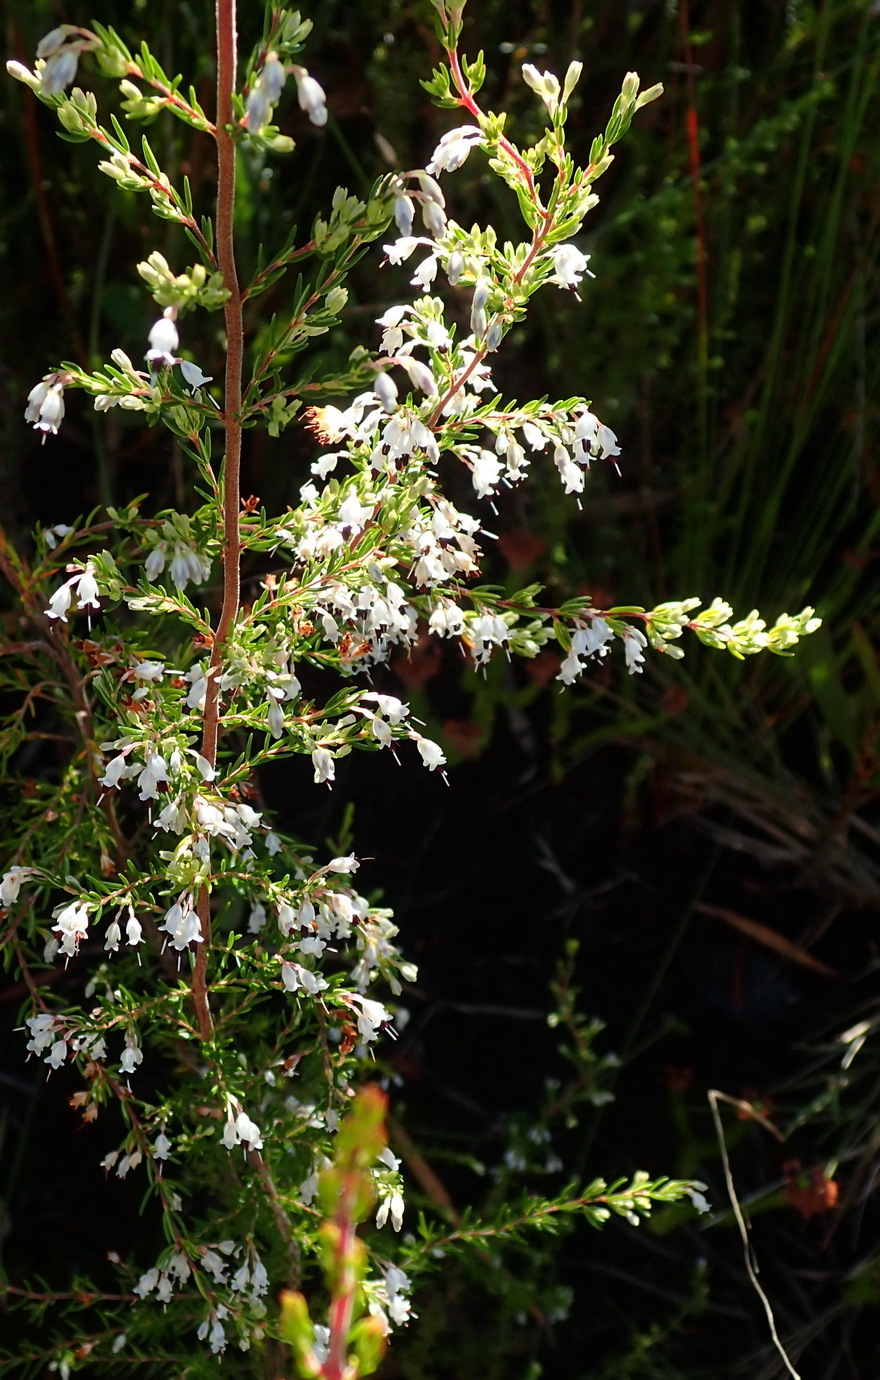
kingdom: Plantae
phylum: Tracheophyta
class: Magnoliopsida
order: Ericales
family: Ericaceae
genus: Erica
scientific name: Erica fuscescens
